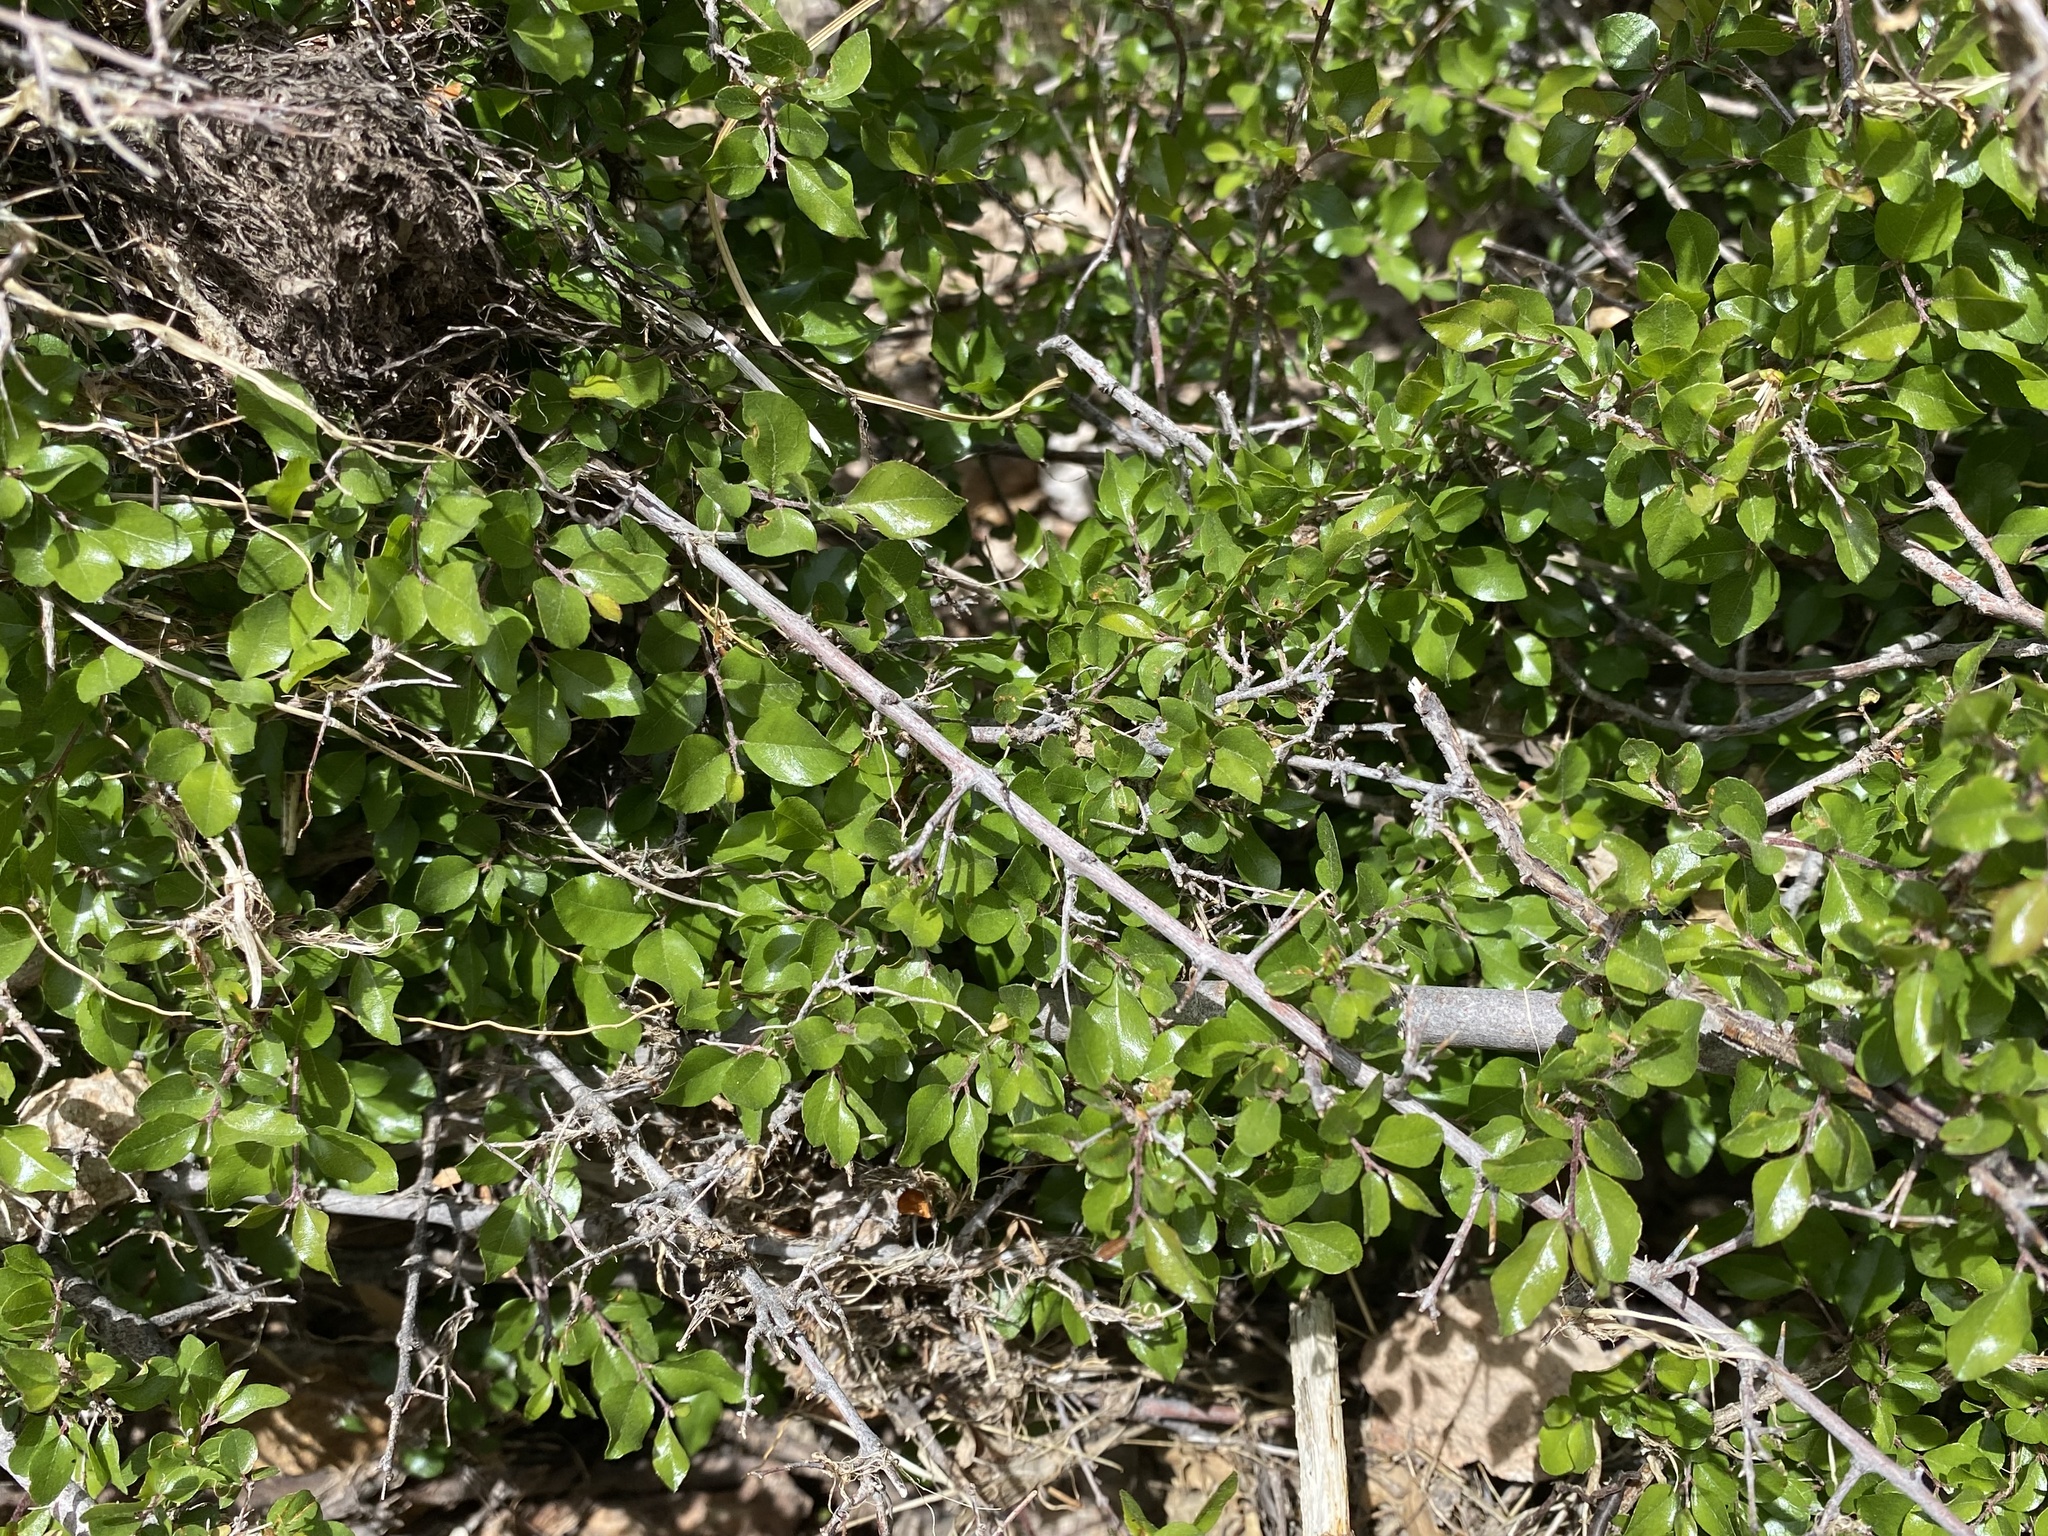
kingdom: Plantae
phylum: Tracheophyta
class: Magnoliopsida
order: Rosales
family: Rhamnaceae
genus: Sageretia
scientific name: Sageretia wrightii
